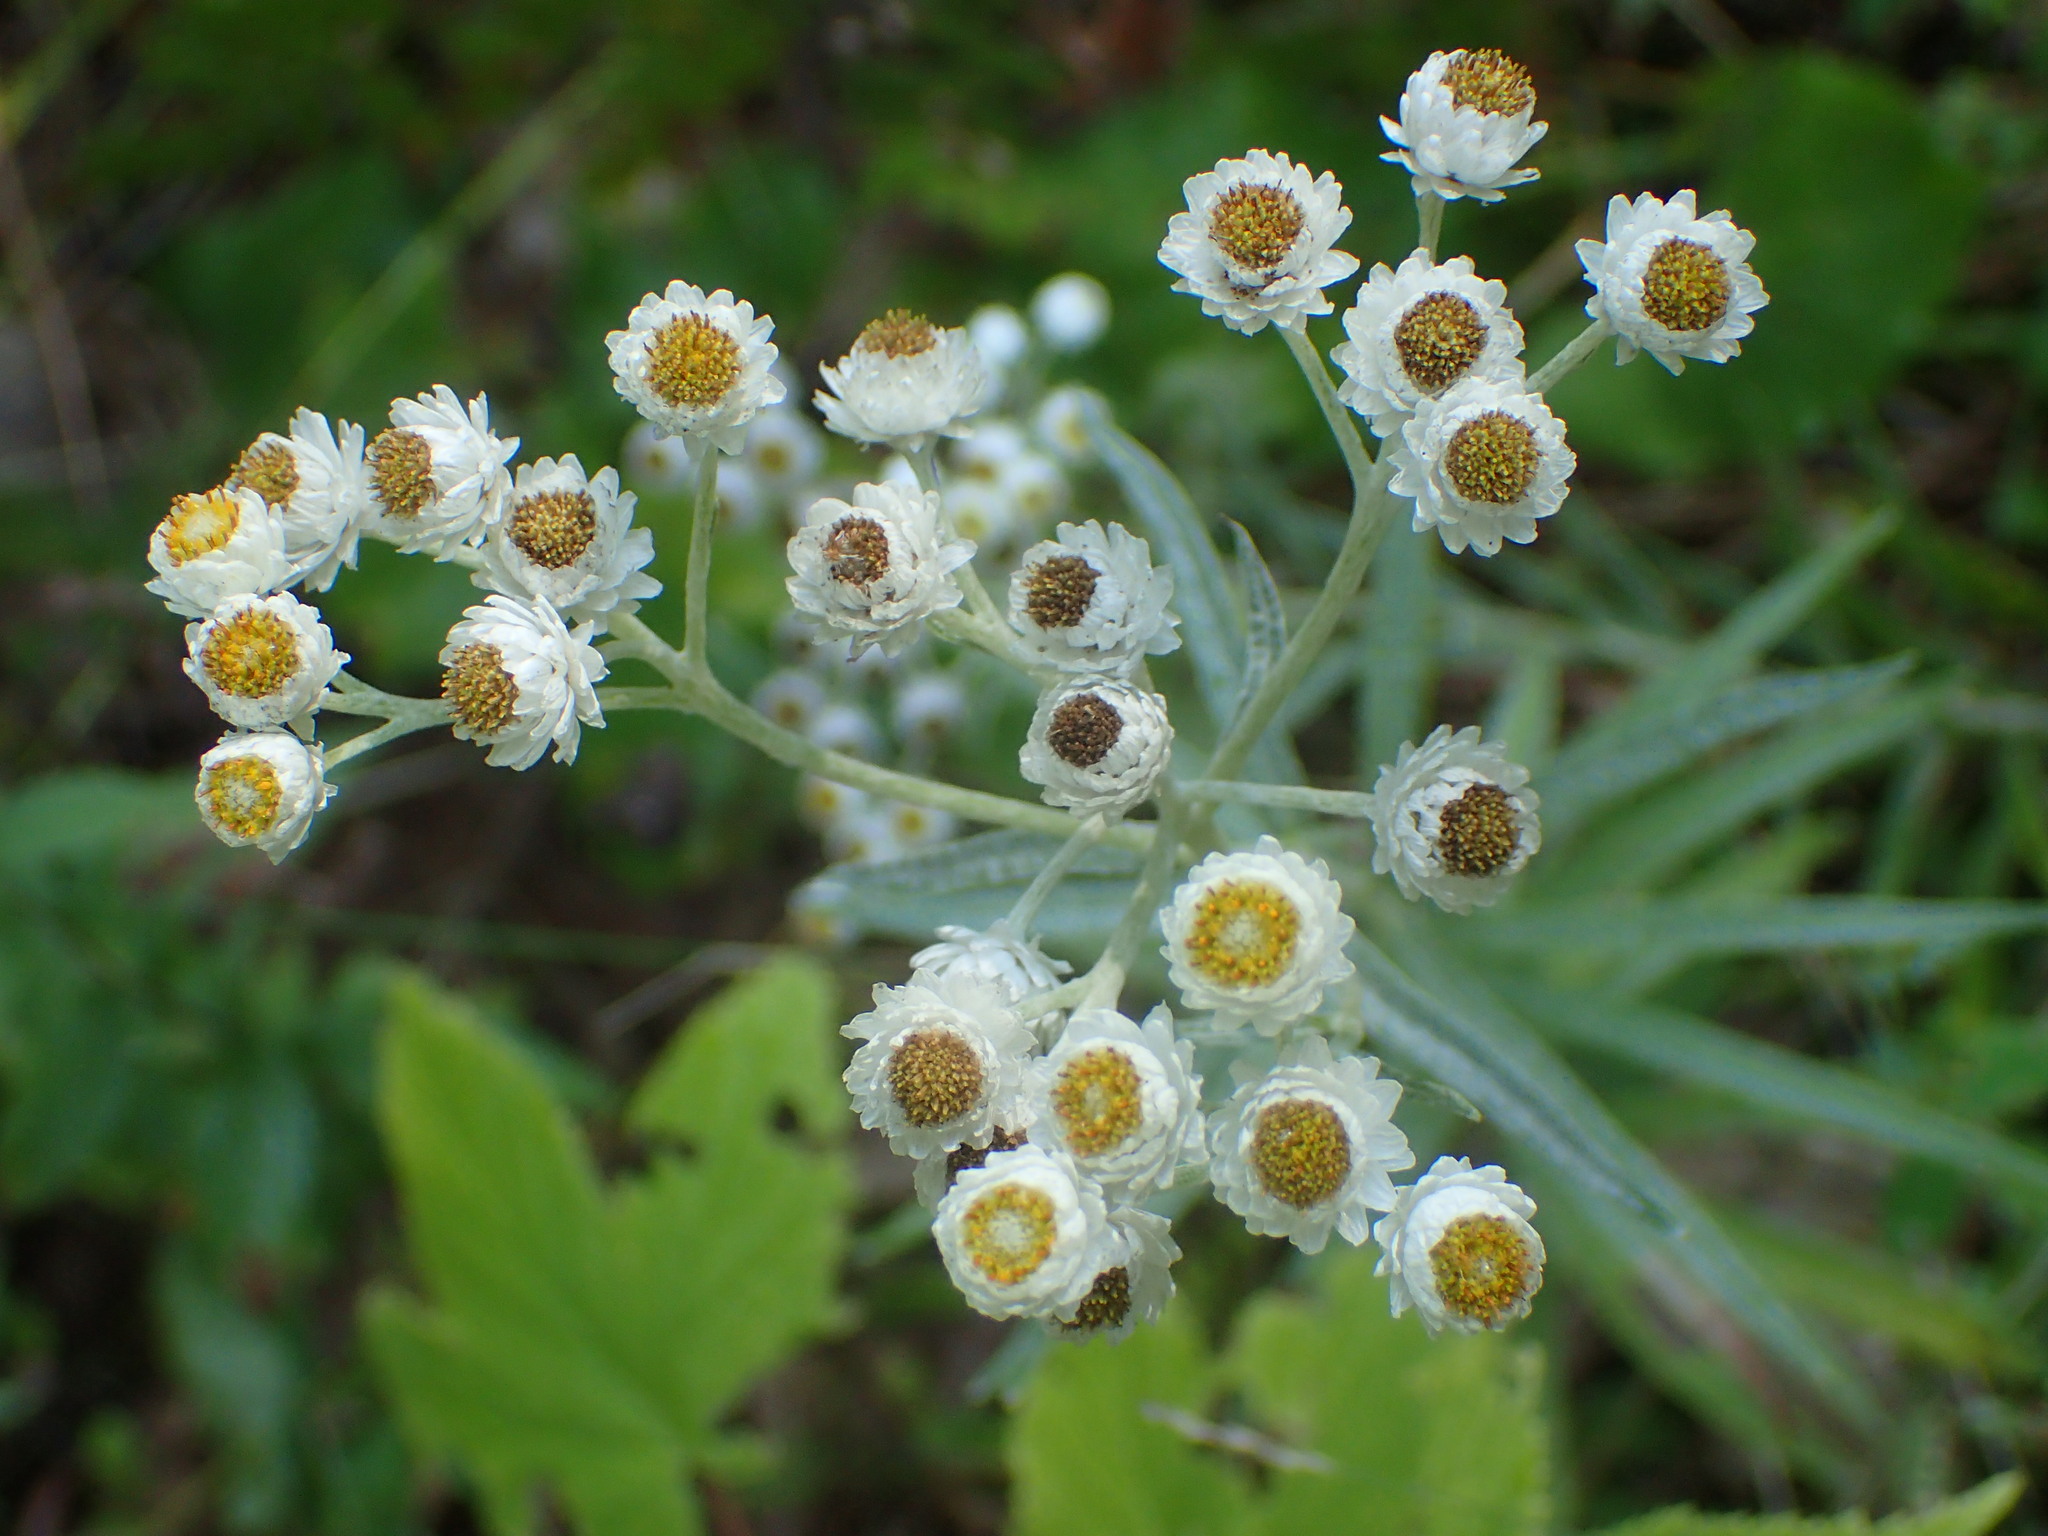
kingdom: Plantae
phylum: Tracheophyta
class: Magnoliopsida
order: Asterales
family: Asteraceae
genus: Anaphalis
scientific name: Anaphalis margaritacea
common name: Pearly everlasting
